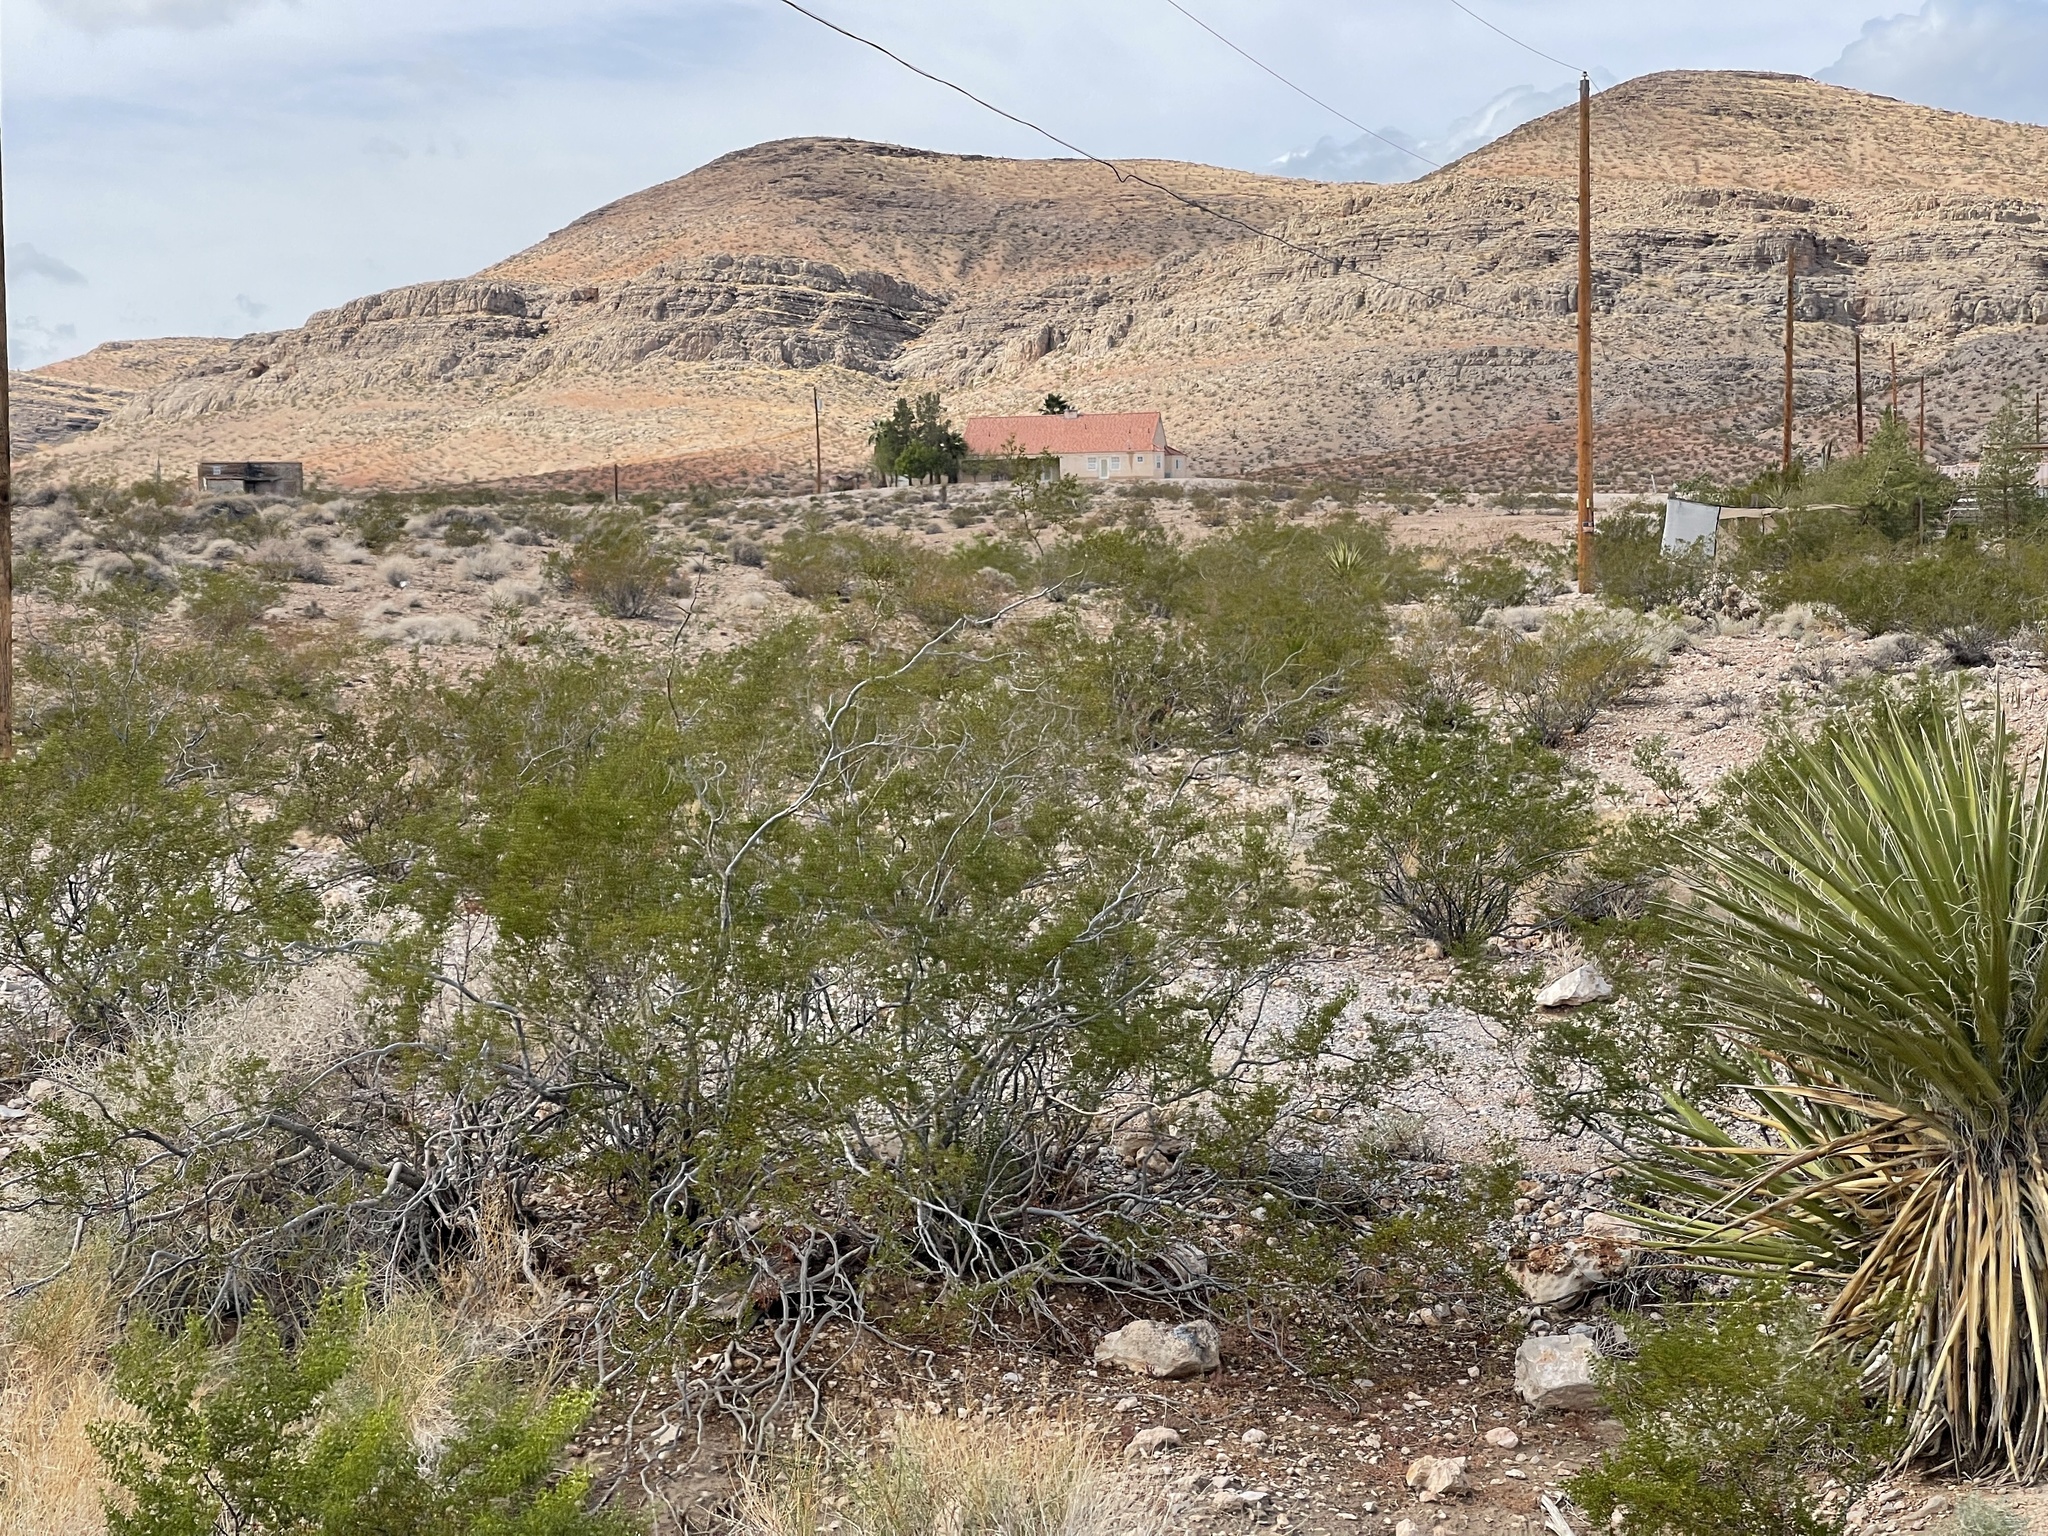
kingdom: Plantae
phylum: Tracheophyta
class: Magnoliopsida
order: Zygophyllales
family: Zygophyllaceae
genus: Larrea
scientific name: Larrea tridentata
